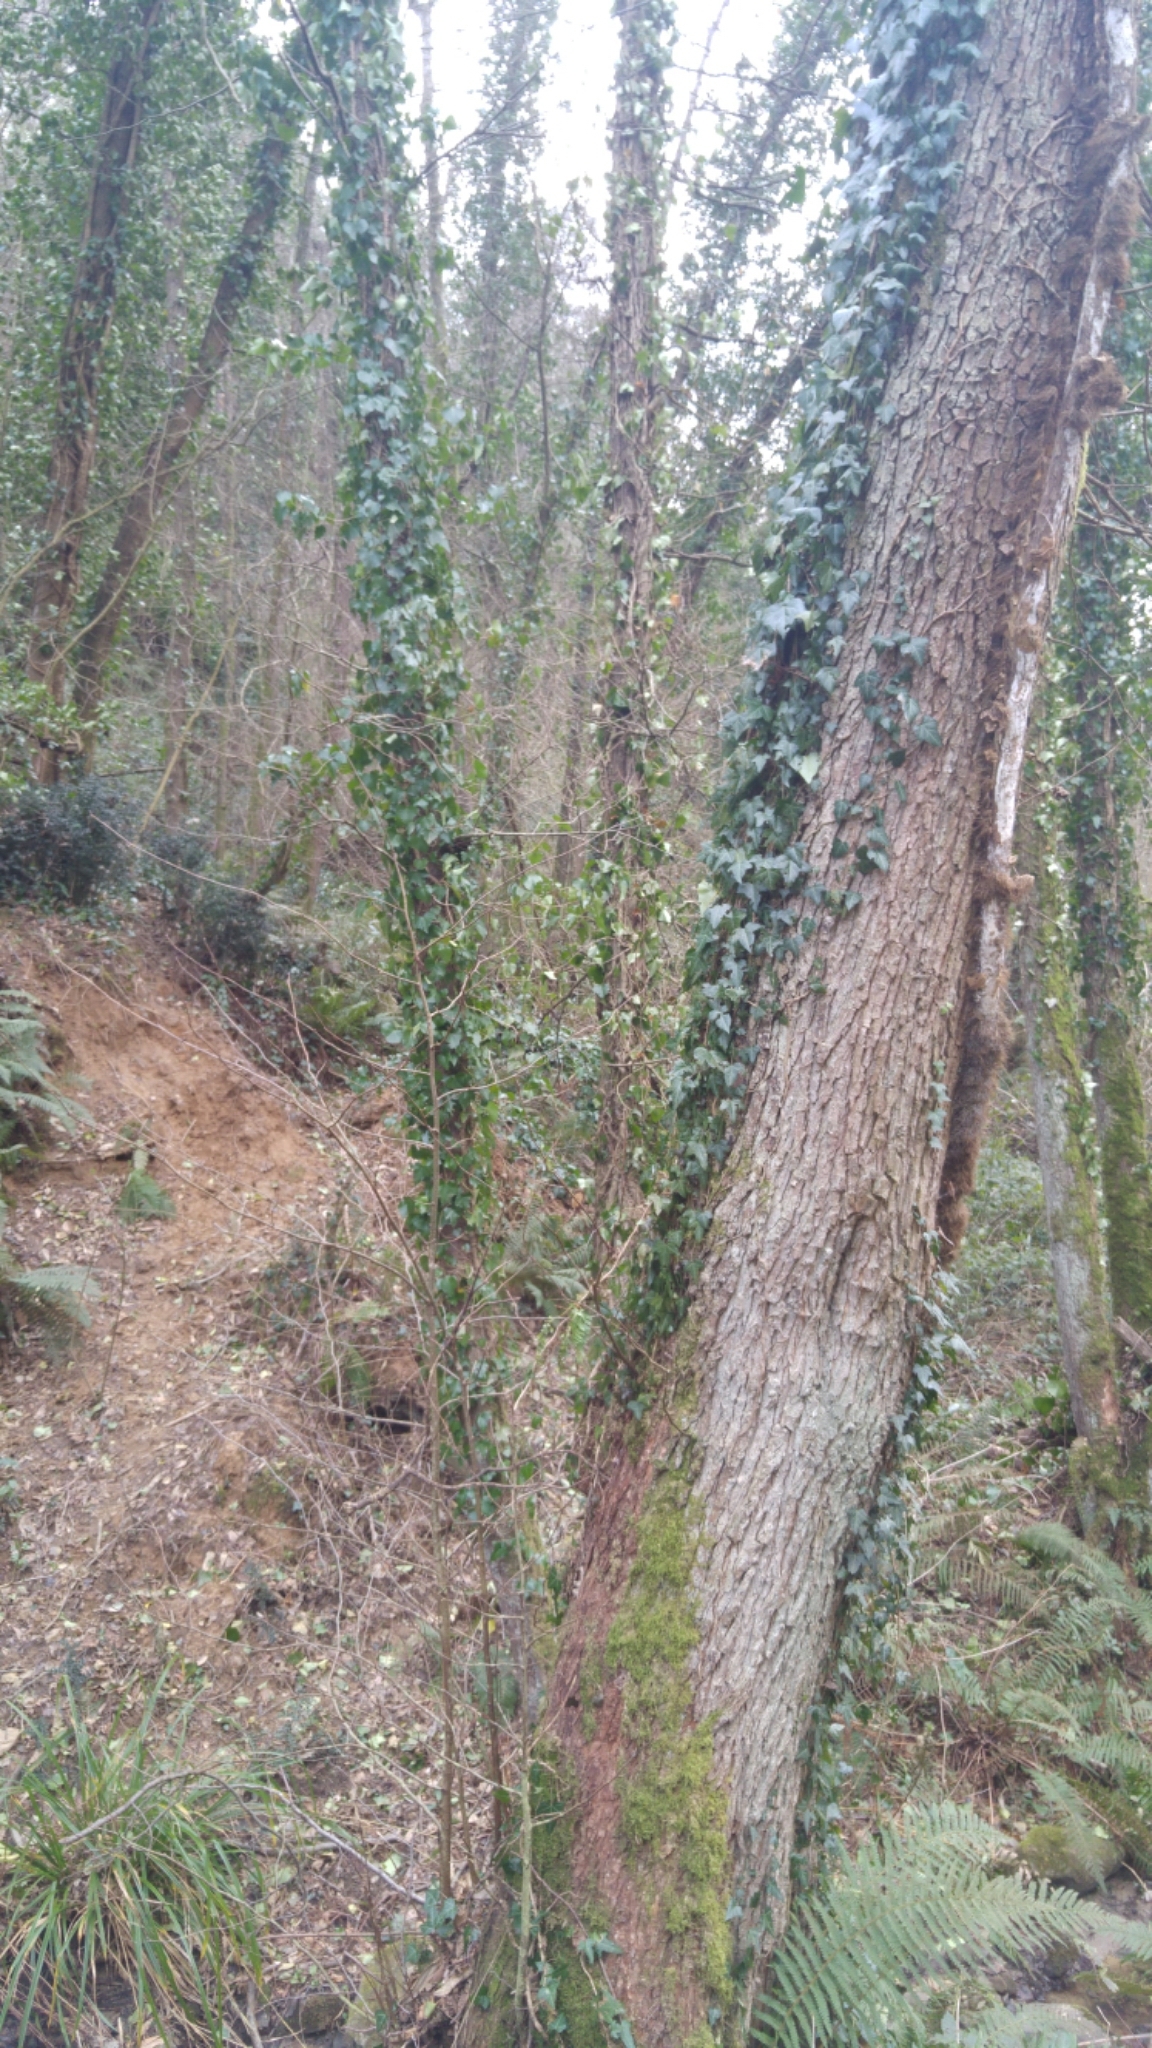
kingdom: Plantae
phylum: Tracheophyta
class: Magnoliopsida
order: Apiales
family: Araliaceae
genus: Hedera
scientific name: Hedera helix
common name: Ivy
